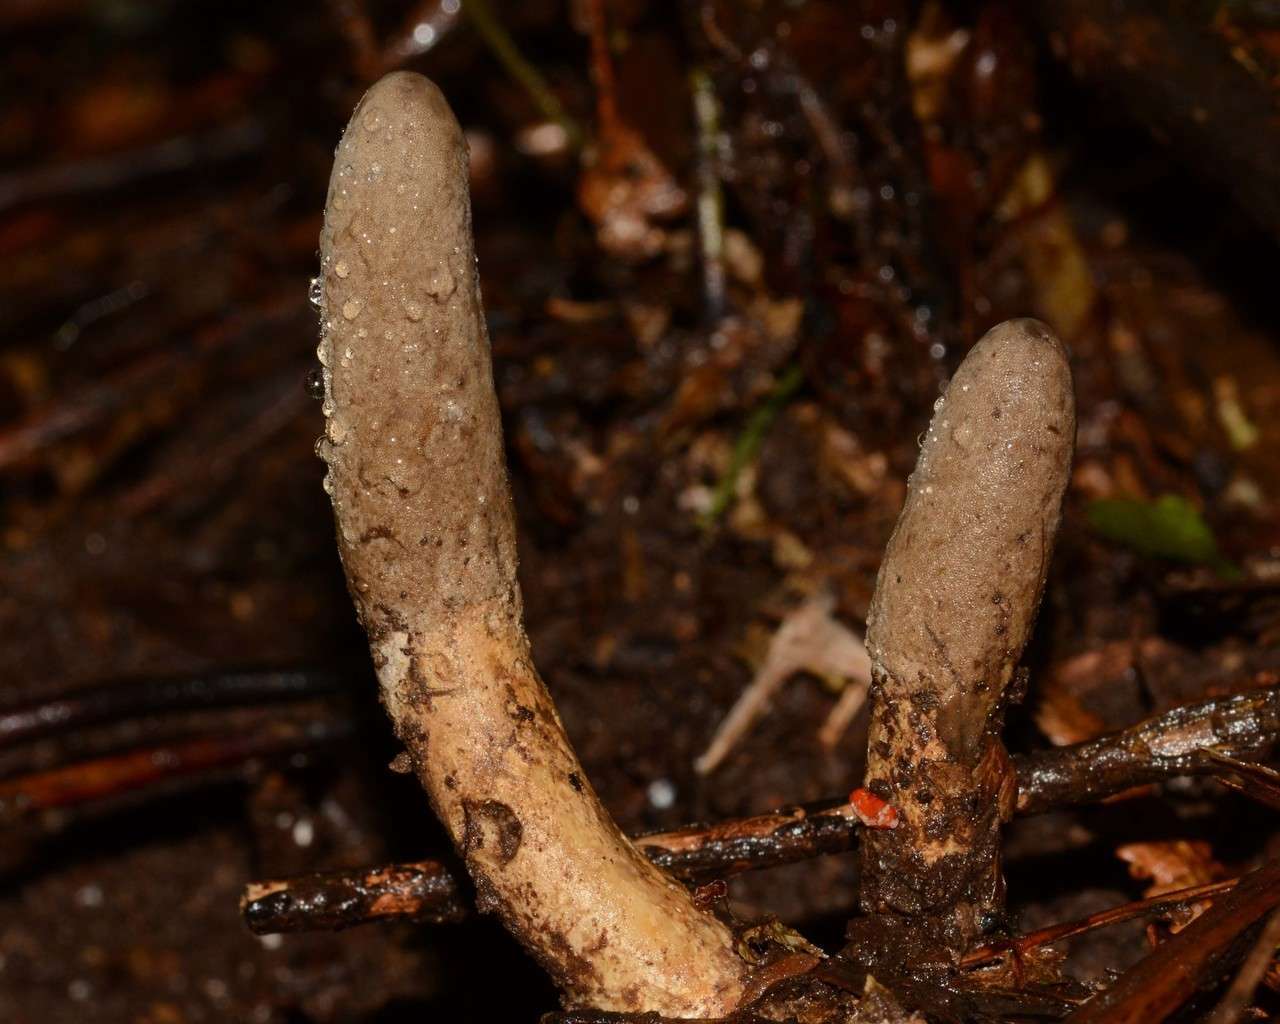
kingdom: Fungi
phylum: Ascomycota
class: Sordariomycetes
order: Hypocreales
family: Cordycipitaceae
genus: Cordyceps
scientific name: Cordyceps
